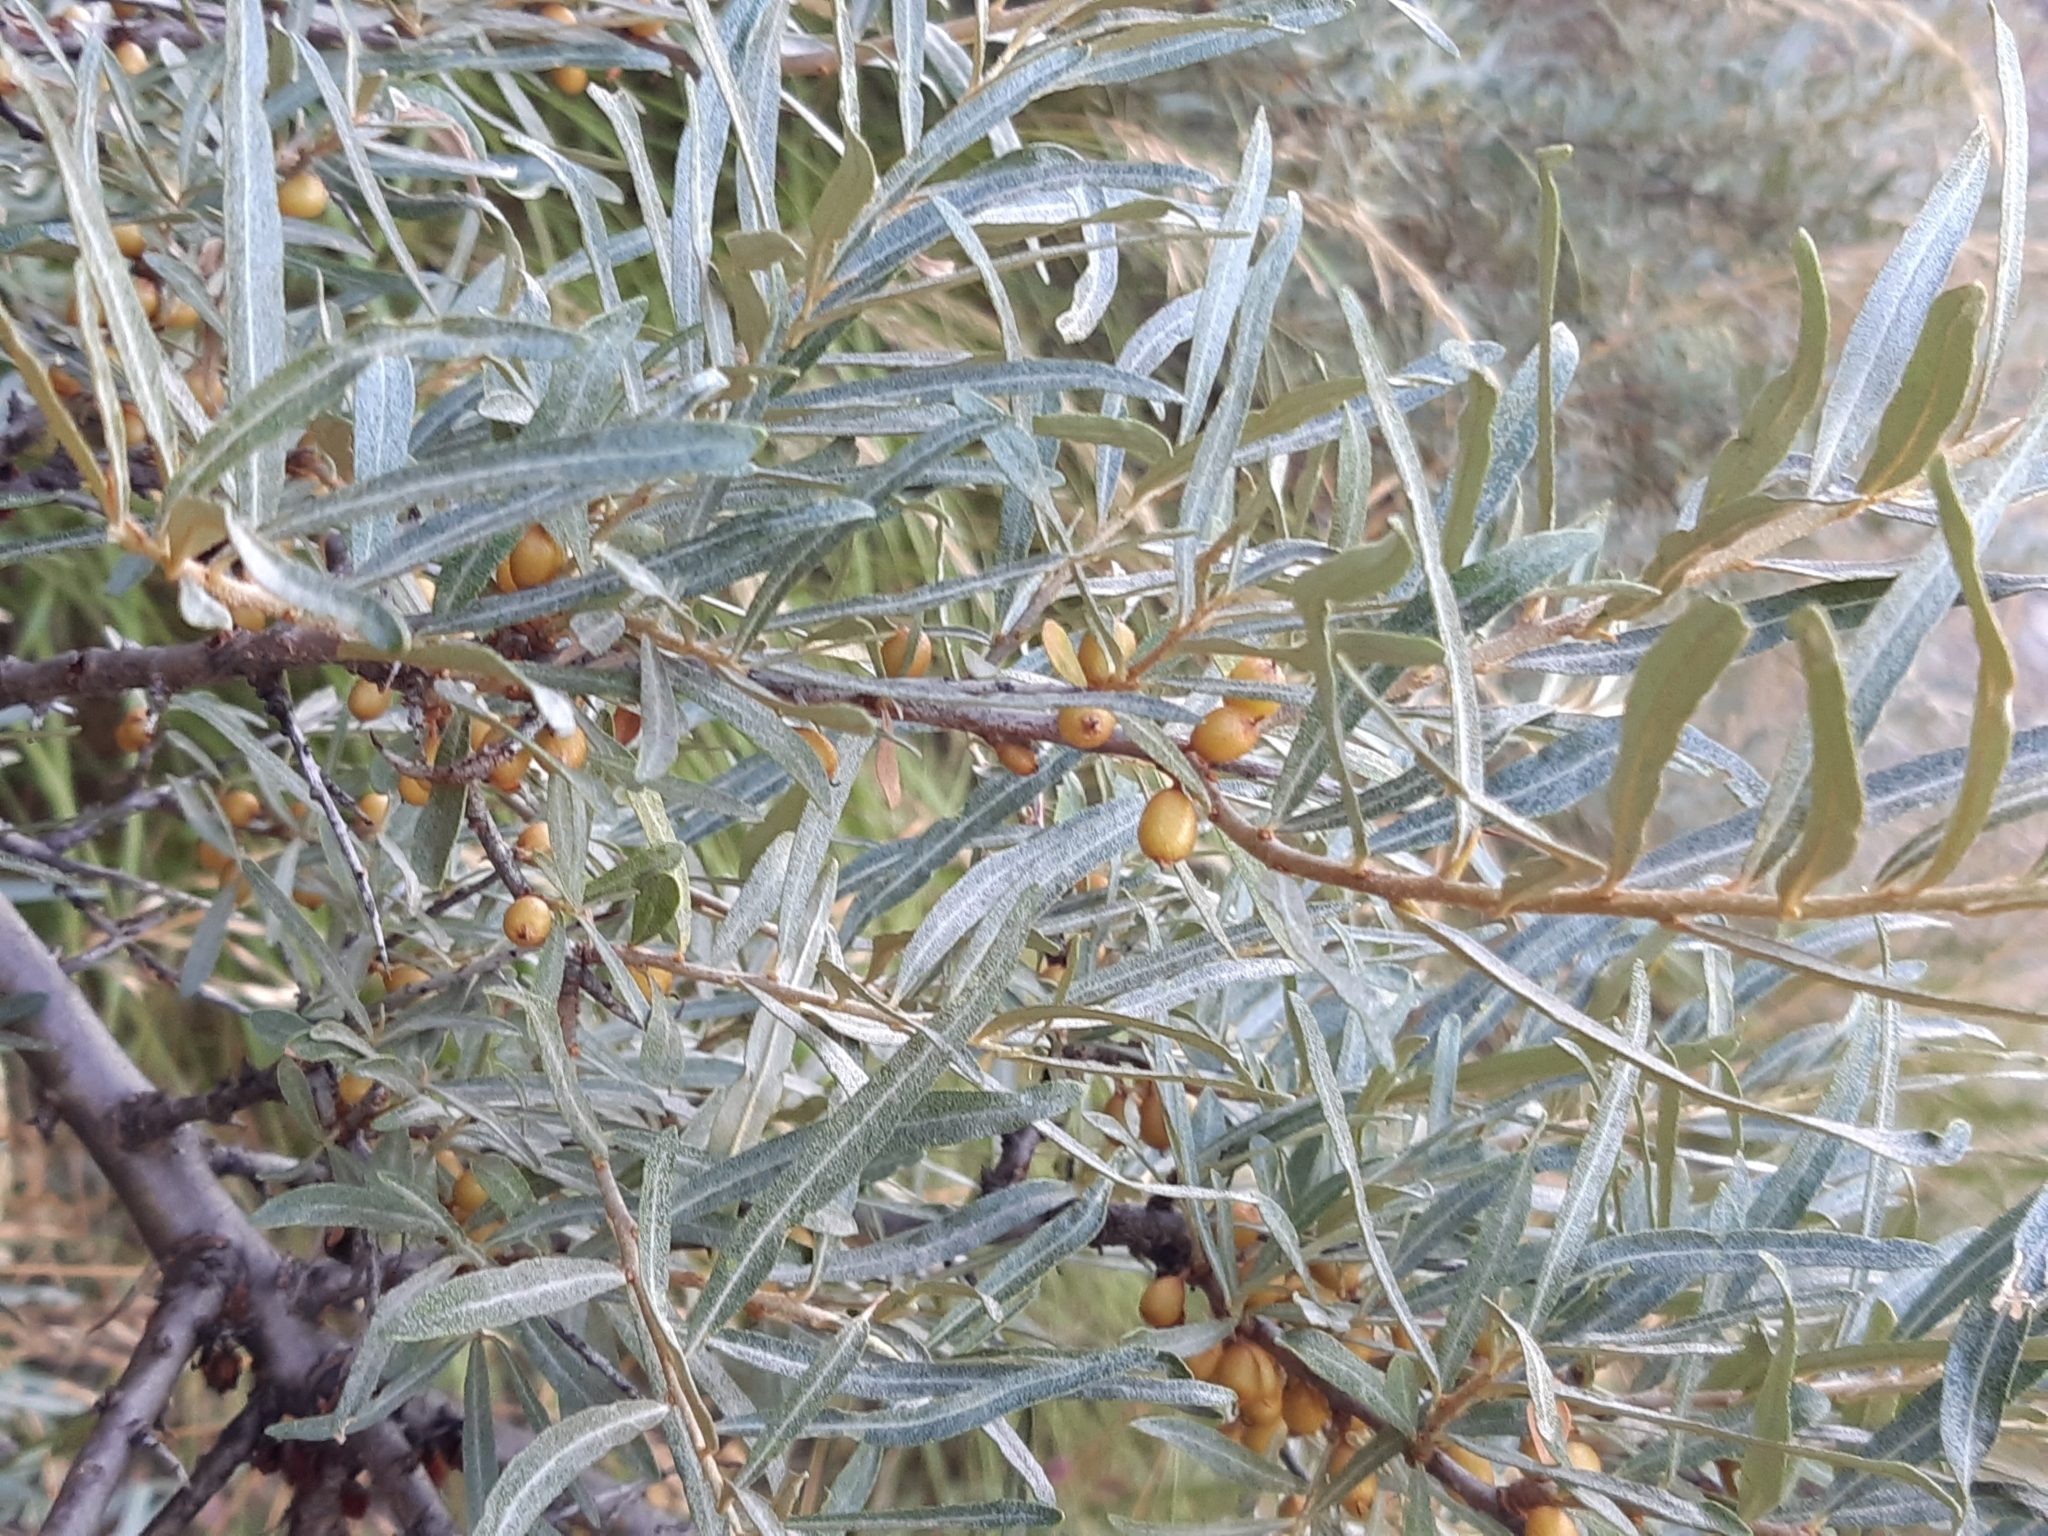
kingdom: Plantae
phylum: Tracheophyta
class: Magnoliopsida
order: Rosales
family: Elaeagnaceae
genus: Hippophae
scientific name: Hippophae rhamnoides
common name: Sea-buckthorn
